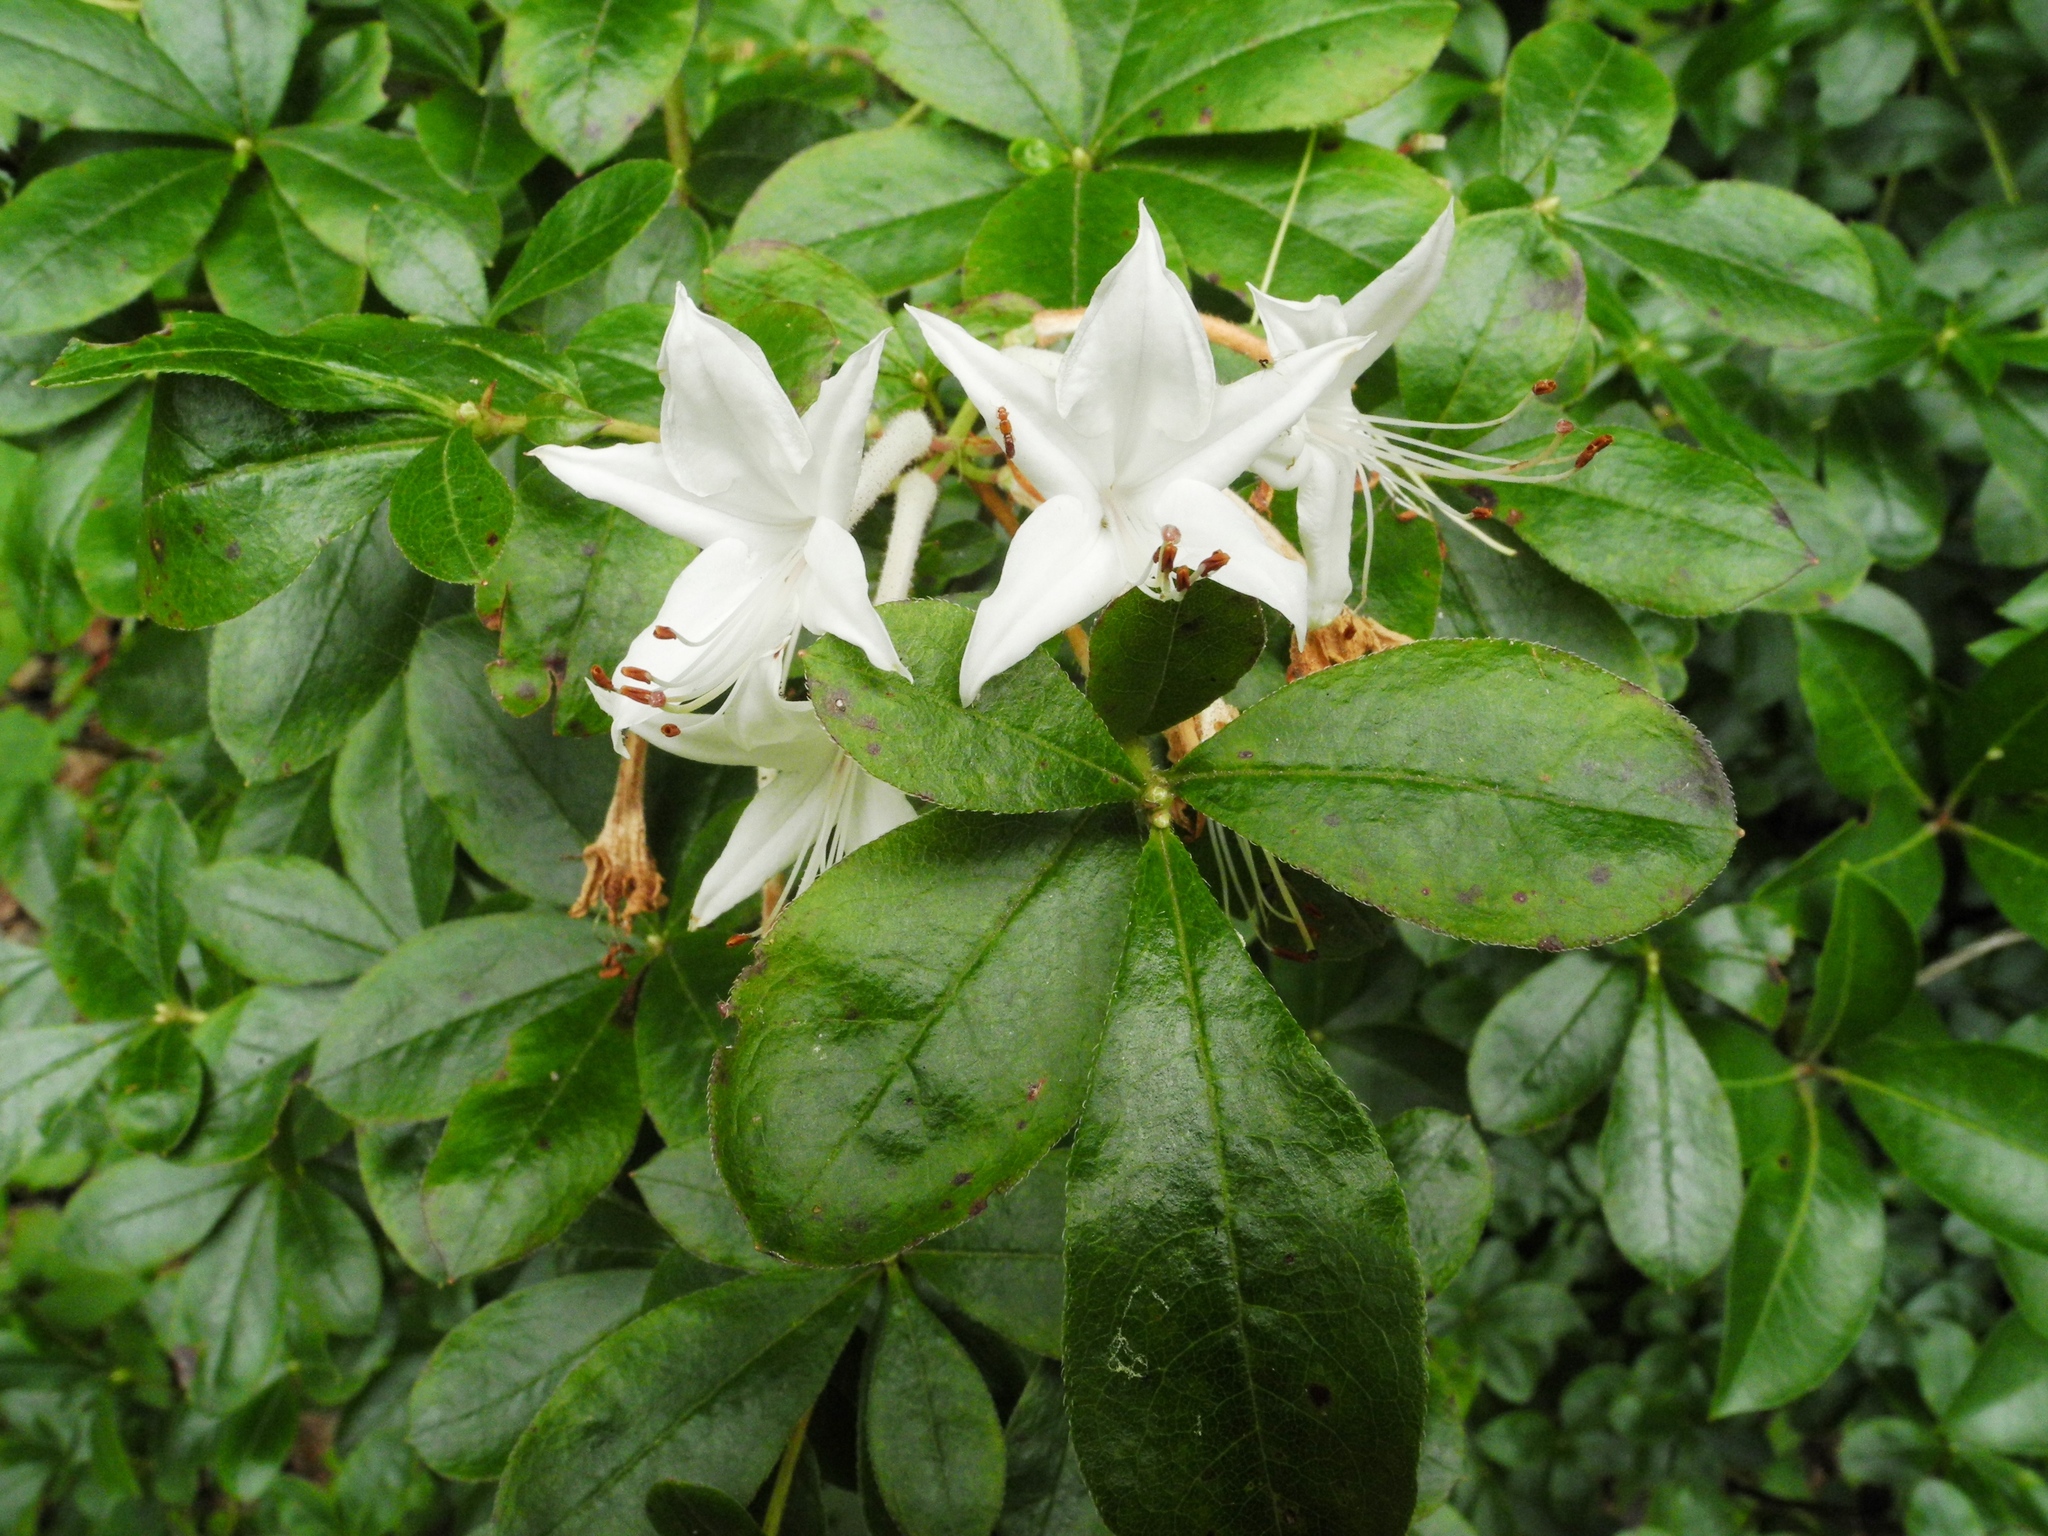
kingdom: Plantae
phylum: Tracheophyta
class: Magnoliopsida
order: Ericales
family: Ericaceae
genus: Rhododendron
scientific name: Rhododendron viscosum
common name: Clammy azalea
